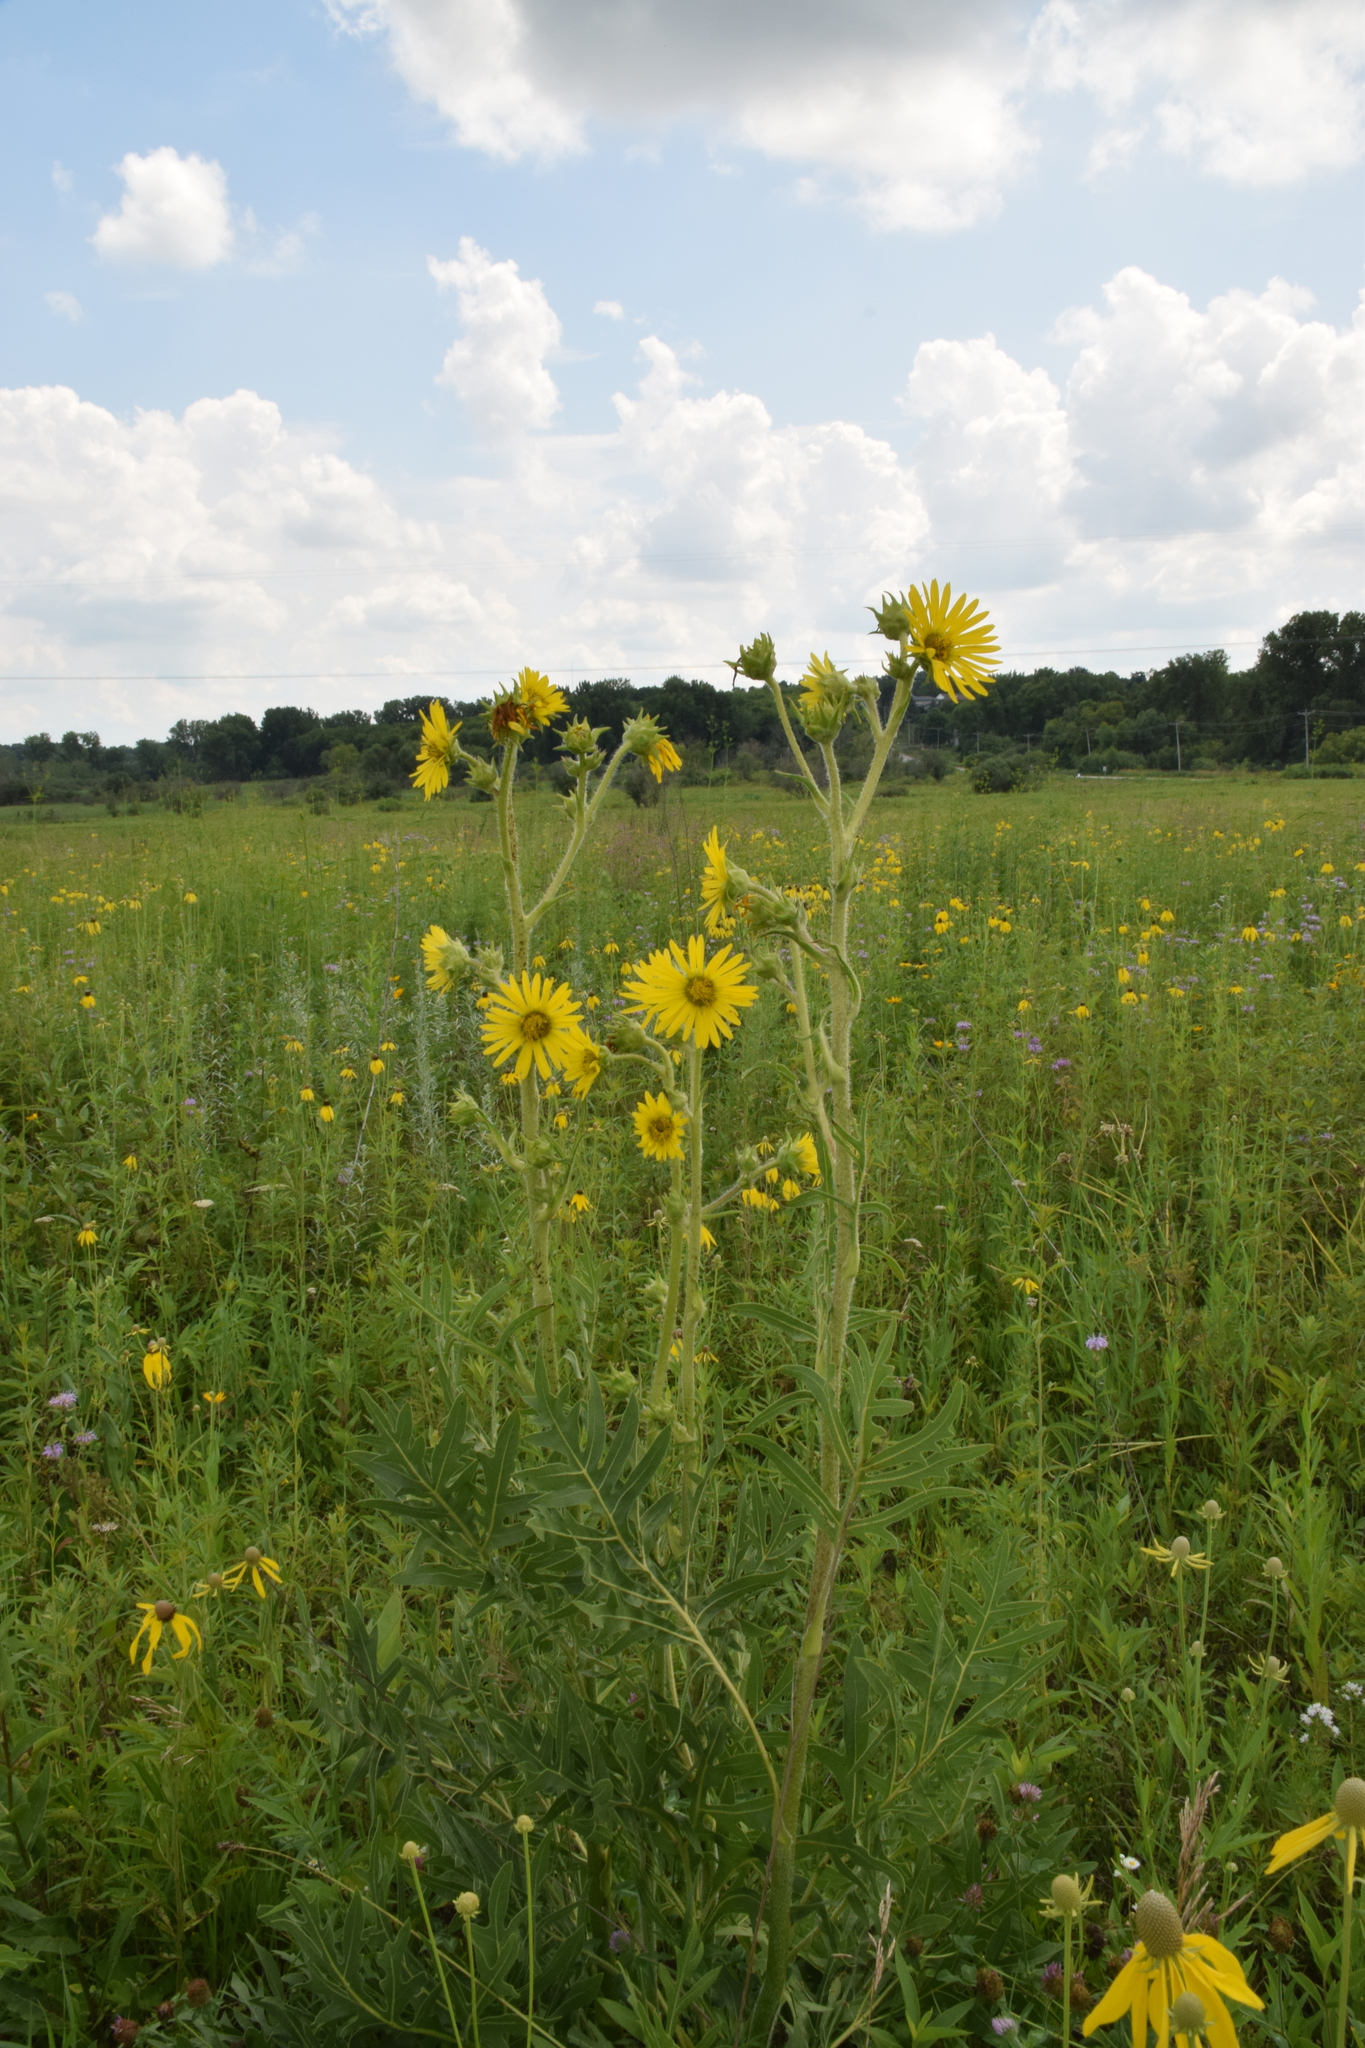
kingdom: Plantae
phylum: Tracheophyta
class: Magnoliopsida
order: Asterales
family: Asteraceae
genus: Silphium
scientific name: Silphium laciniatum
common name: Polarplant
